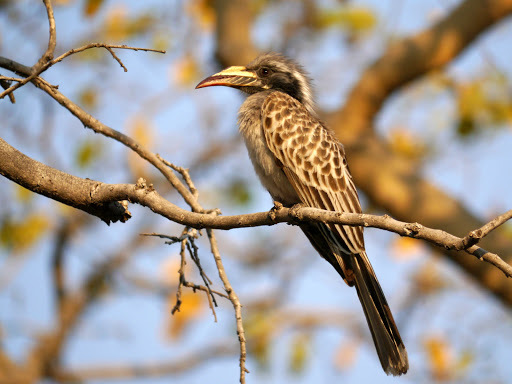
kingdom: Animalia
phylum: Chordata
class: Aves
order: Bucerotiformes
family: Bucerotidae
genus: Lophoceros
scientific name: Lophoceros nasutus
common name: African grey hornbill
